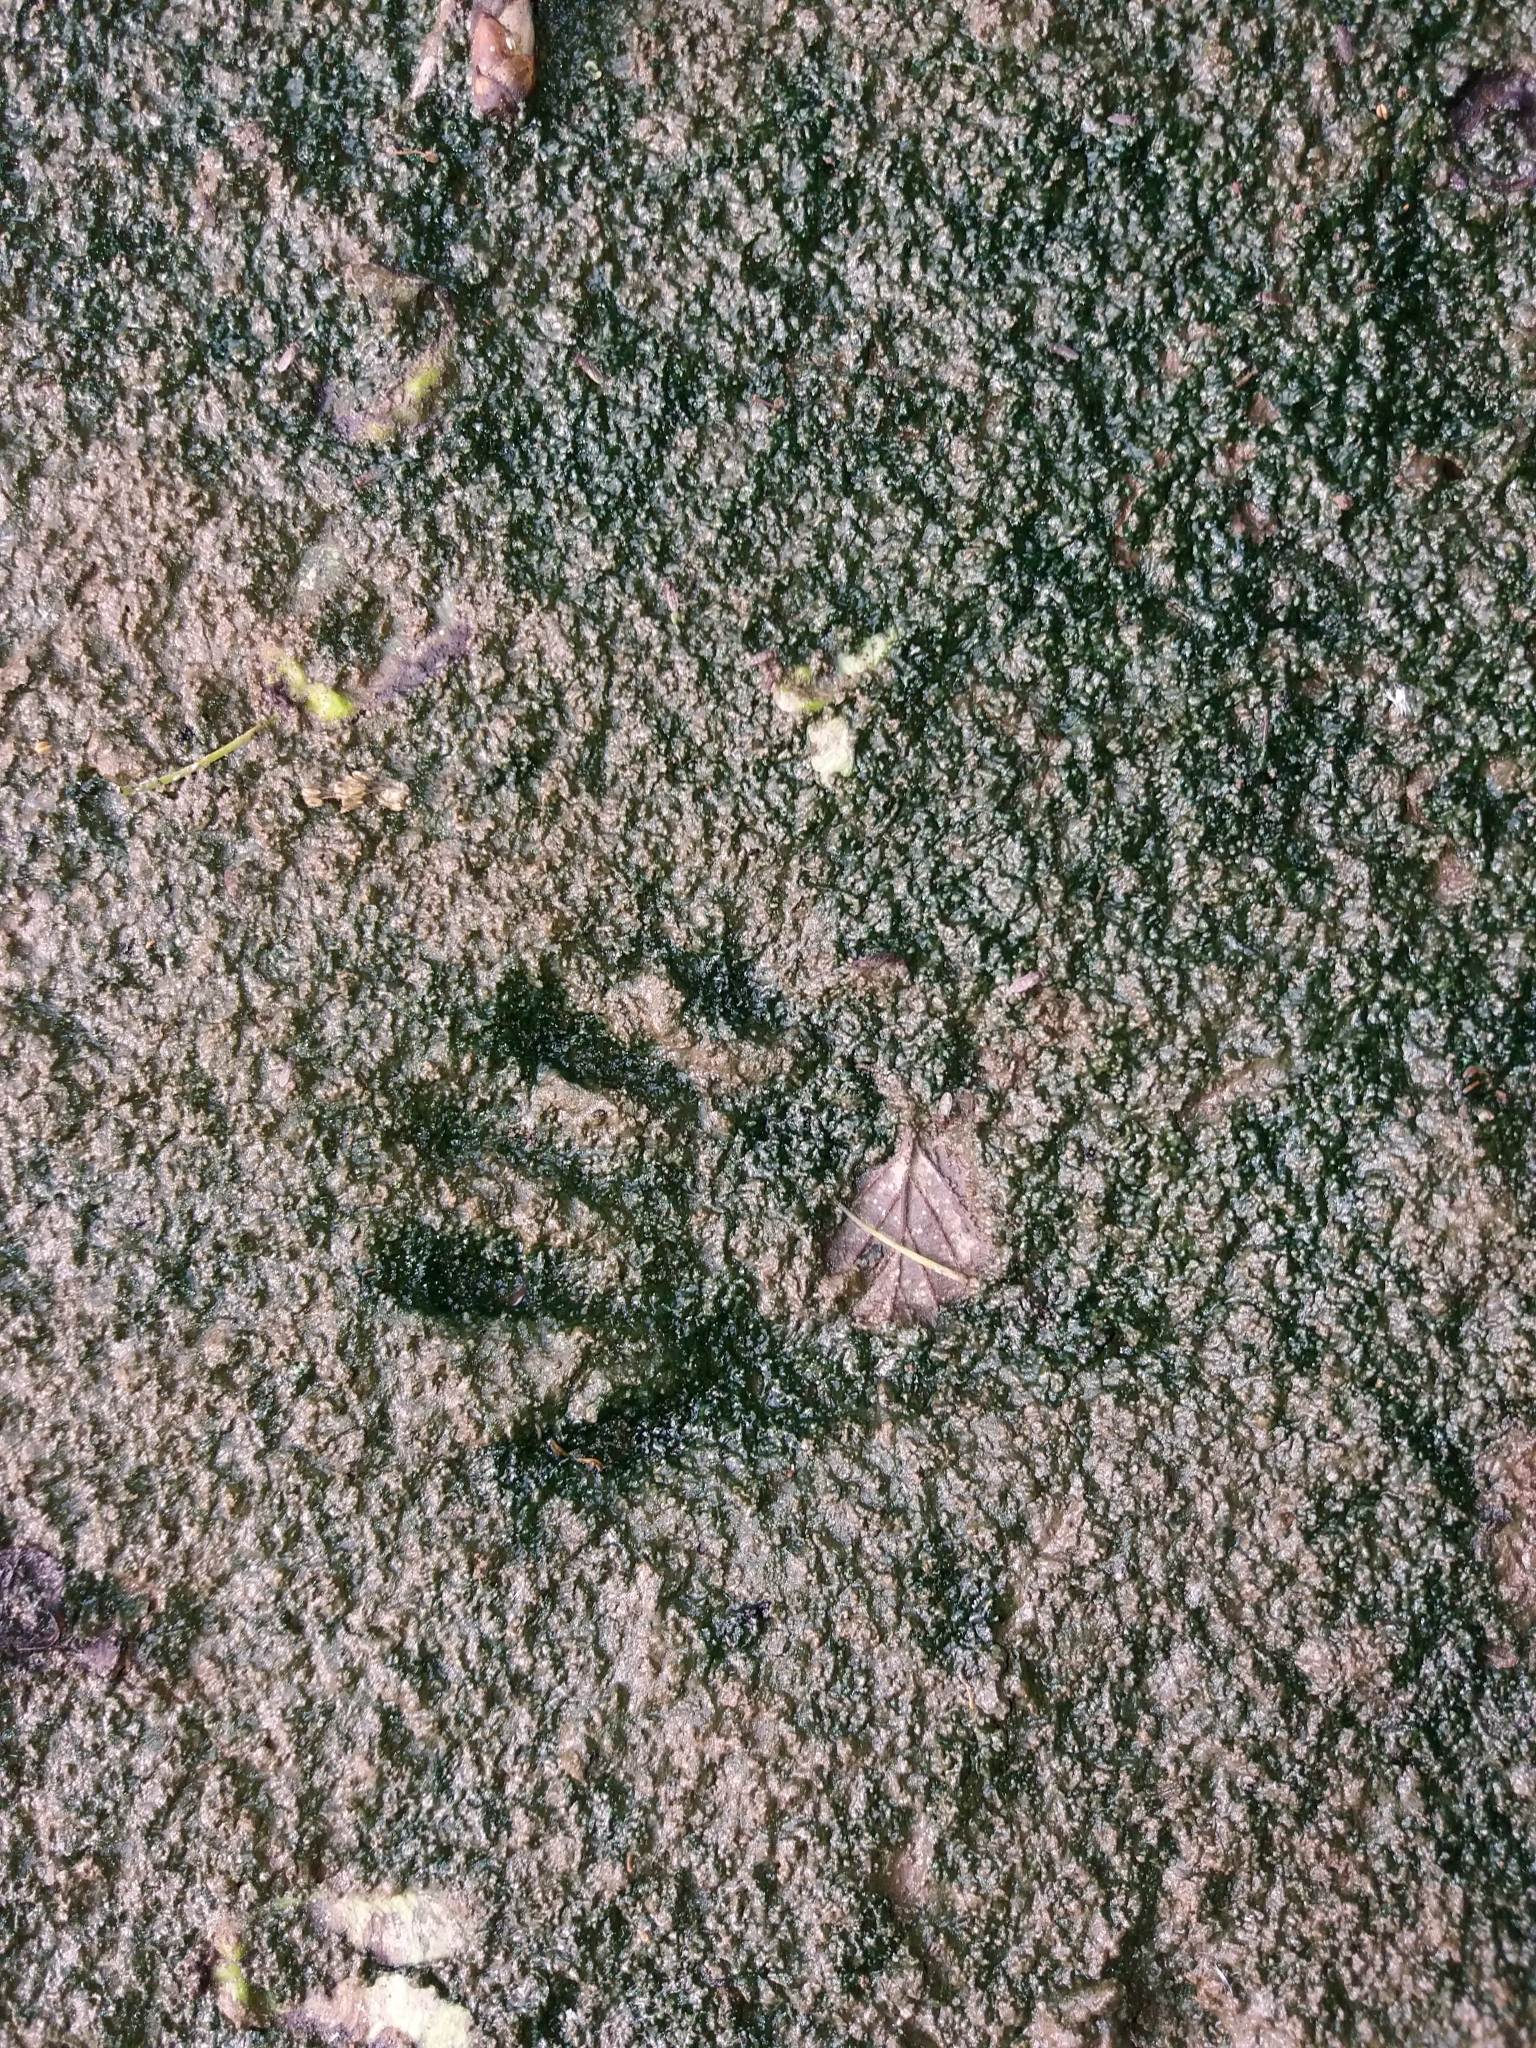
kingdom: Animalia
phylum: Chordata
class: Mammalia
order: Carnivora
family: Procyonidae
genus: Procyon
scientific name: Procyon lotor
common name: Raccoon
